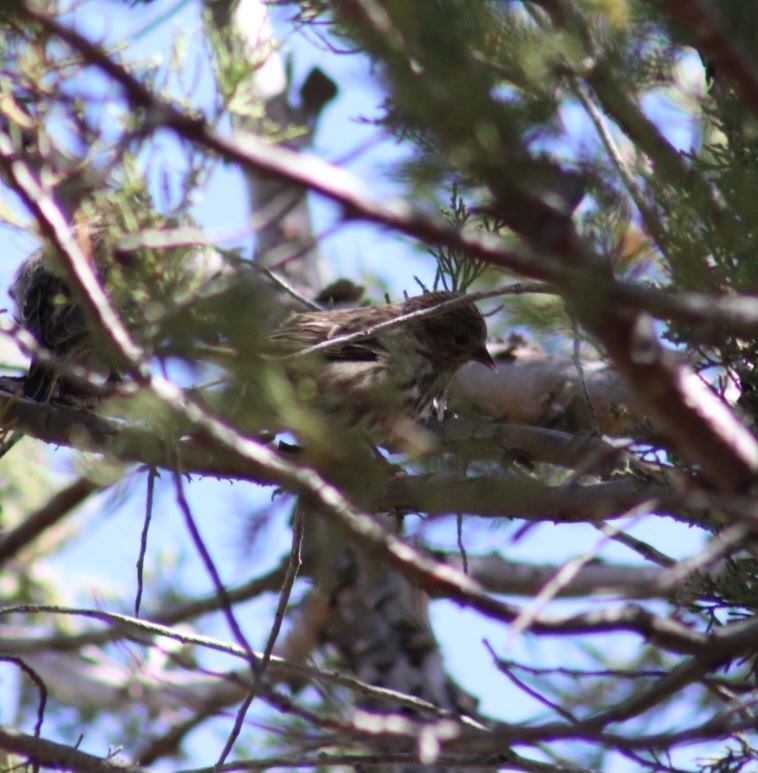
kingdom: Animalia
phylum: Chordata
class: Aves
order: Passeriformes
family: Fringillidae
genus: Spinus
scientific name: Spinus pinus
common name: Pine siskin
